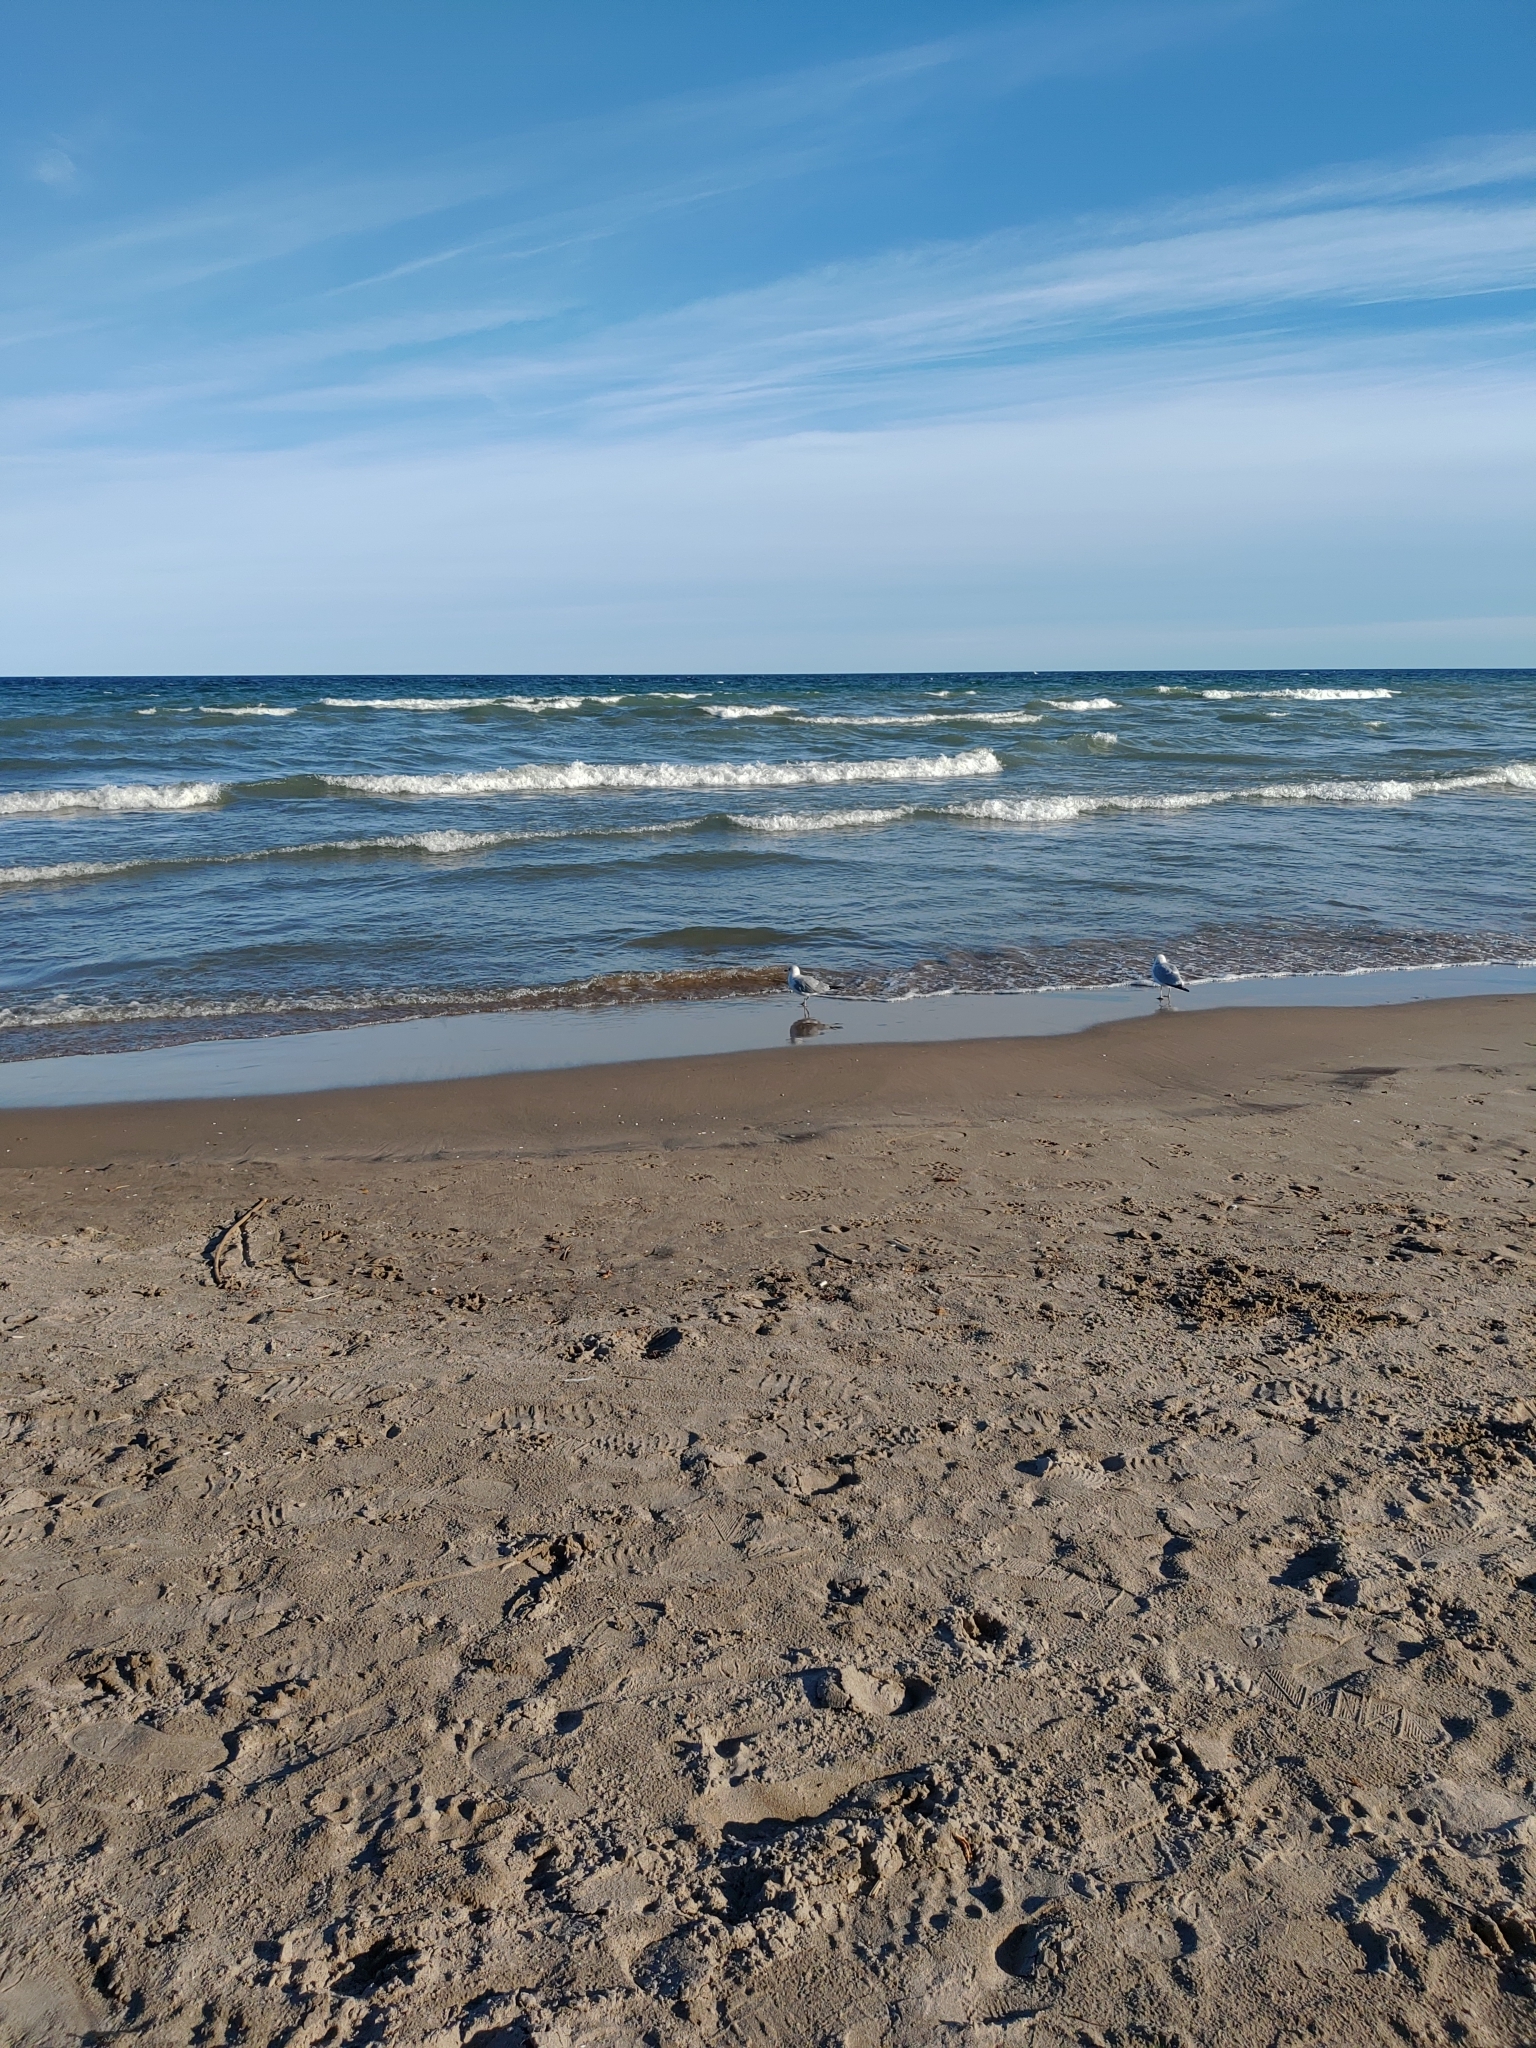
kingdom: Animalia
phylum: Chordata
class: Aves
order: Charadriiformes
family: Laridae
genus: Larus
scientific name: Larus delawarensis
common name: Ring-billed gull
